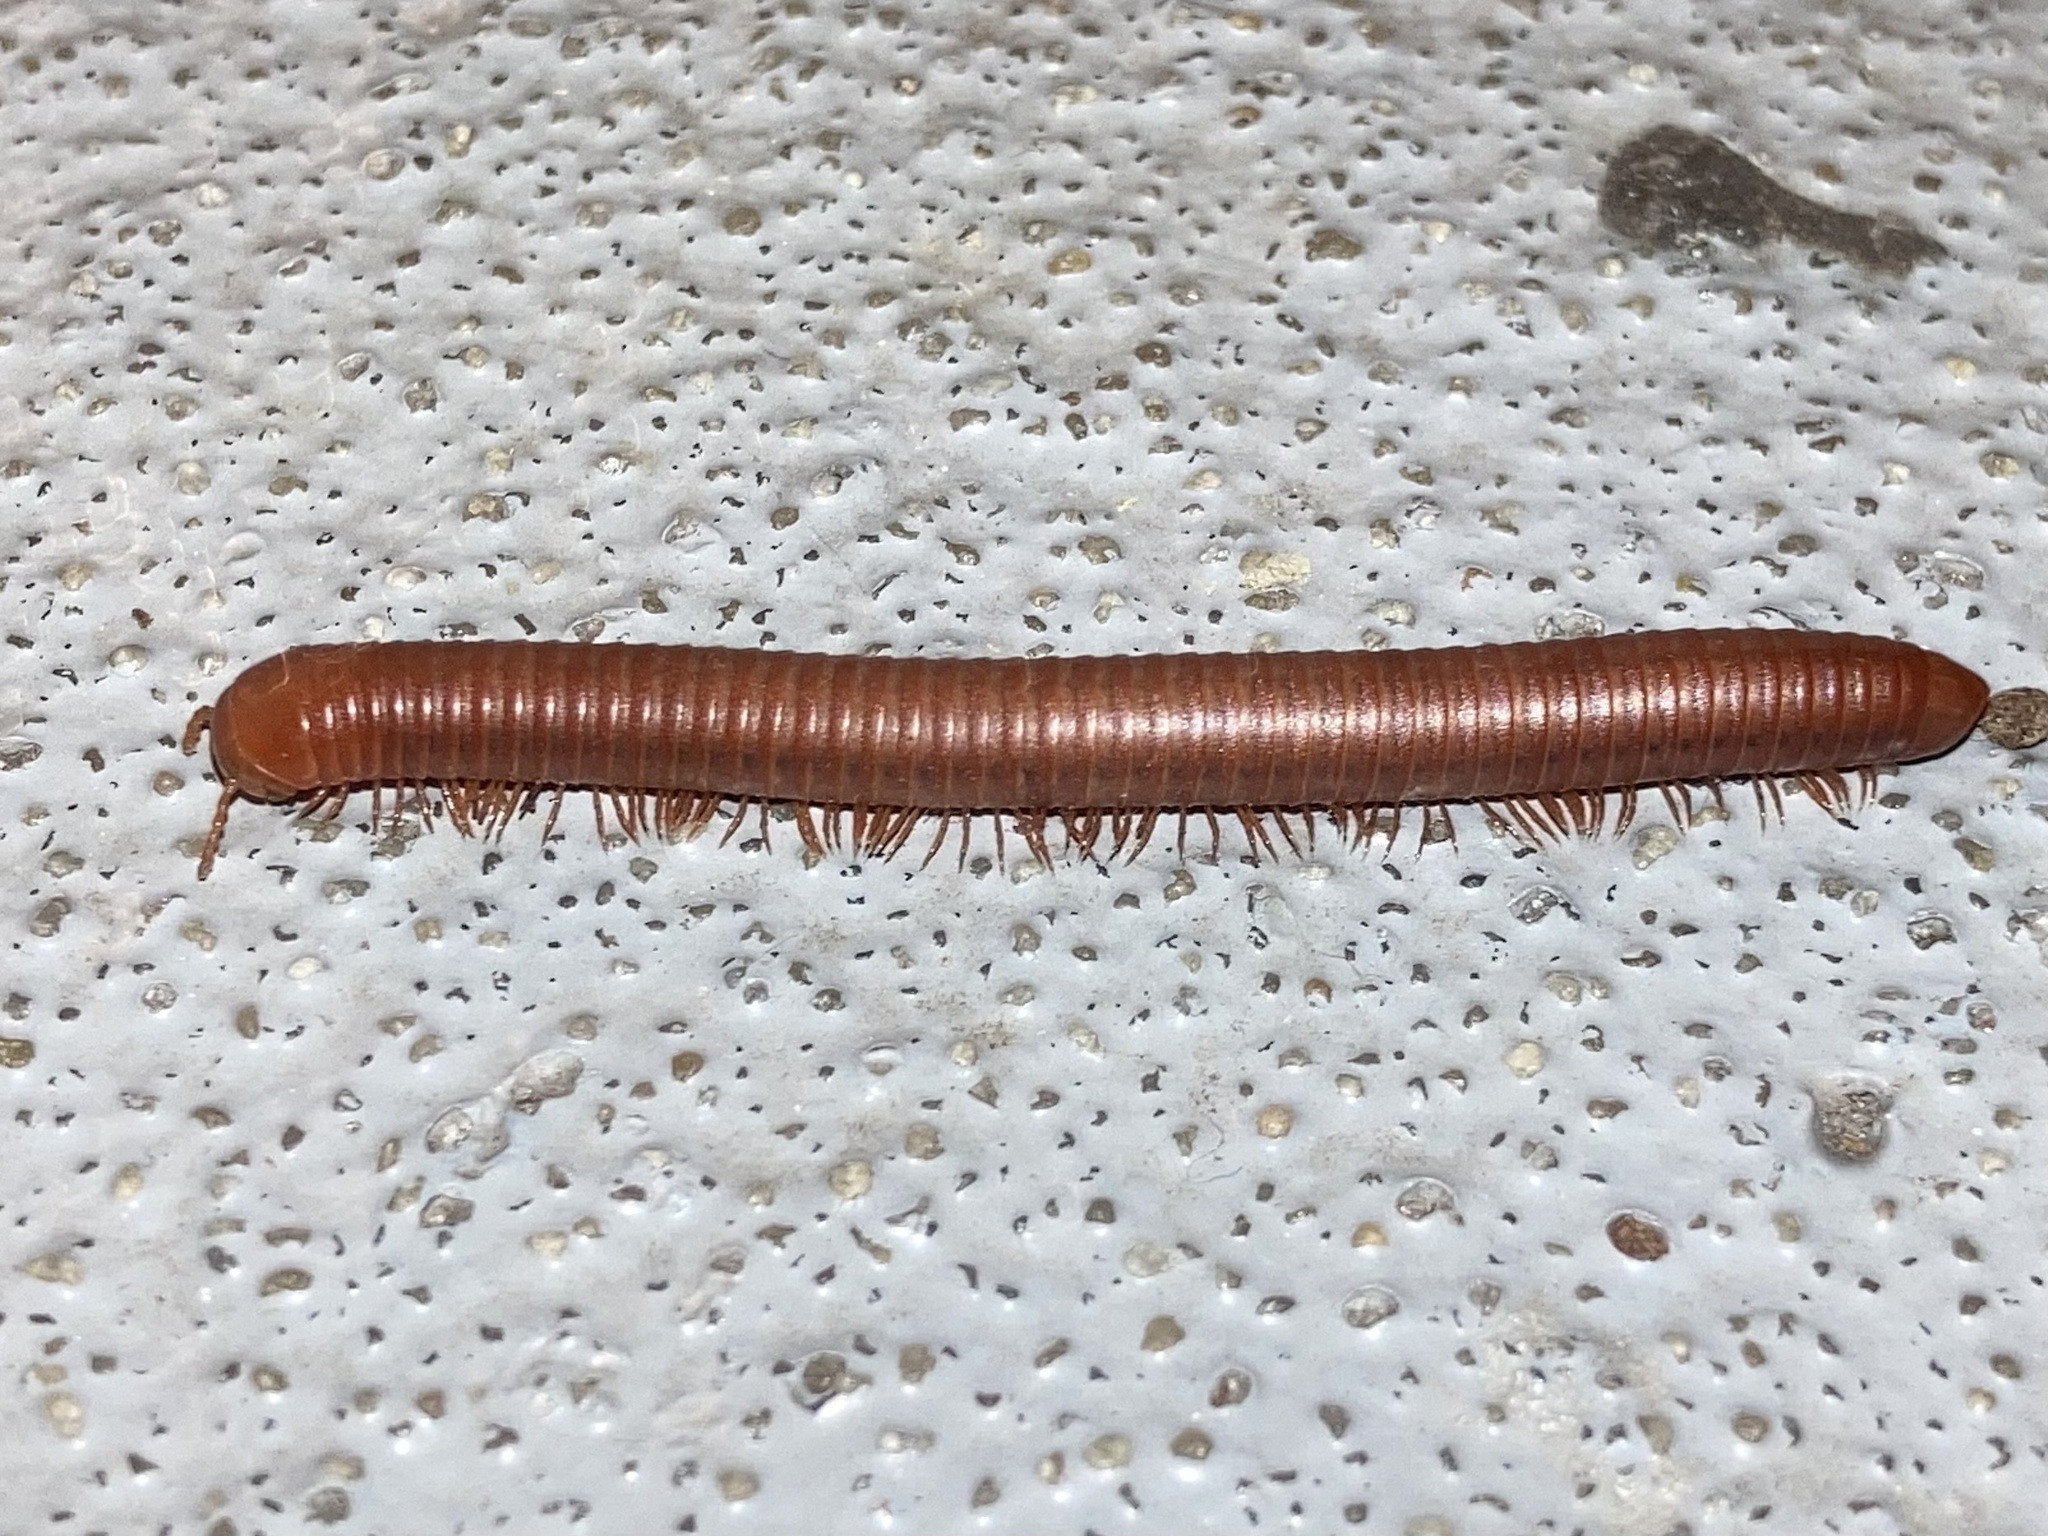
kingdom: Animalia
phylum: Arthropoda
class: Diplopoda
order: Spirobolida
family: Pachybolidae
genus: Trigoniulus
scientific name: Trigoniulus corallinus
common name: Millipede
